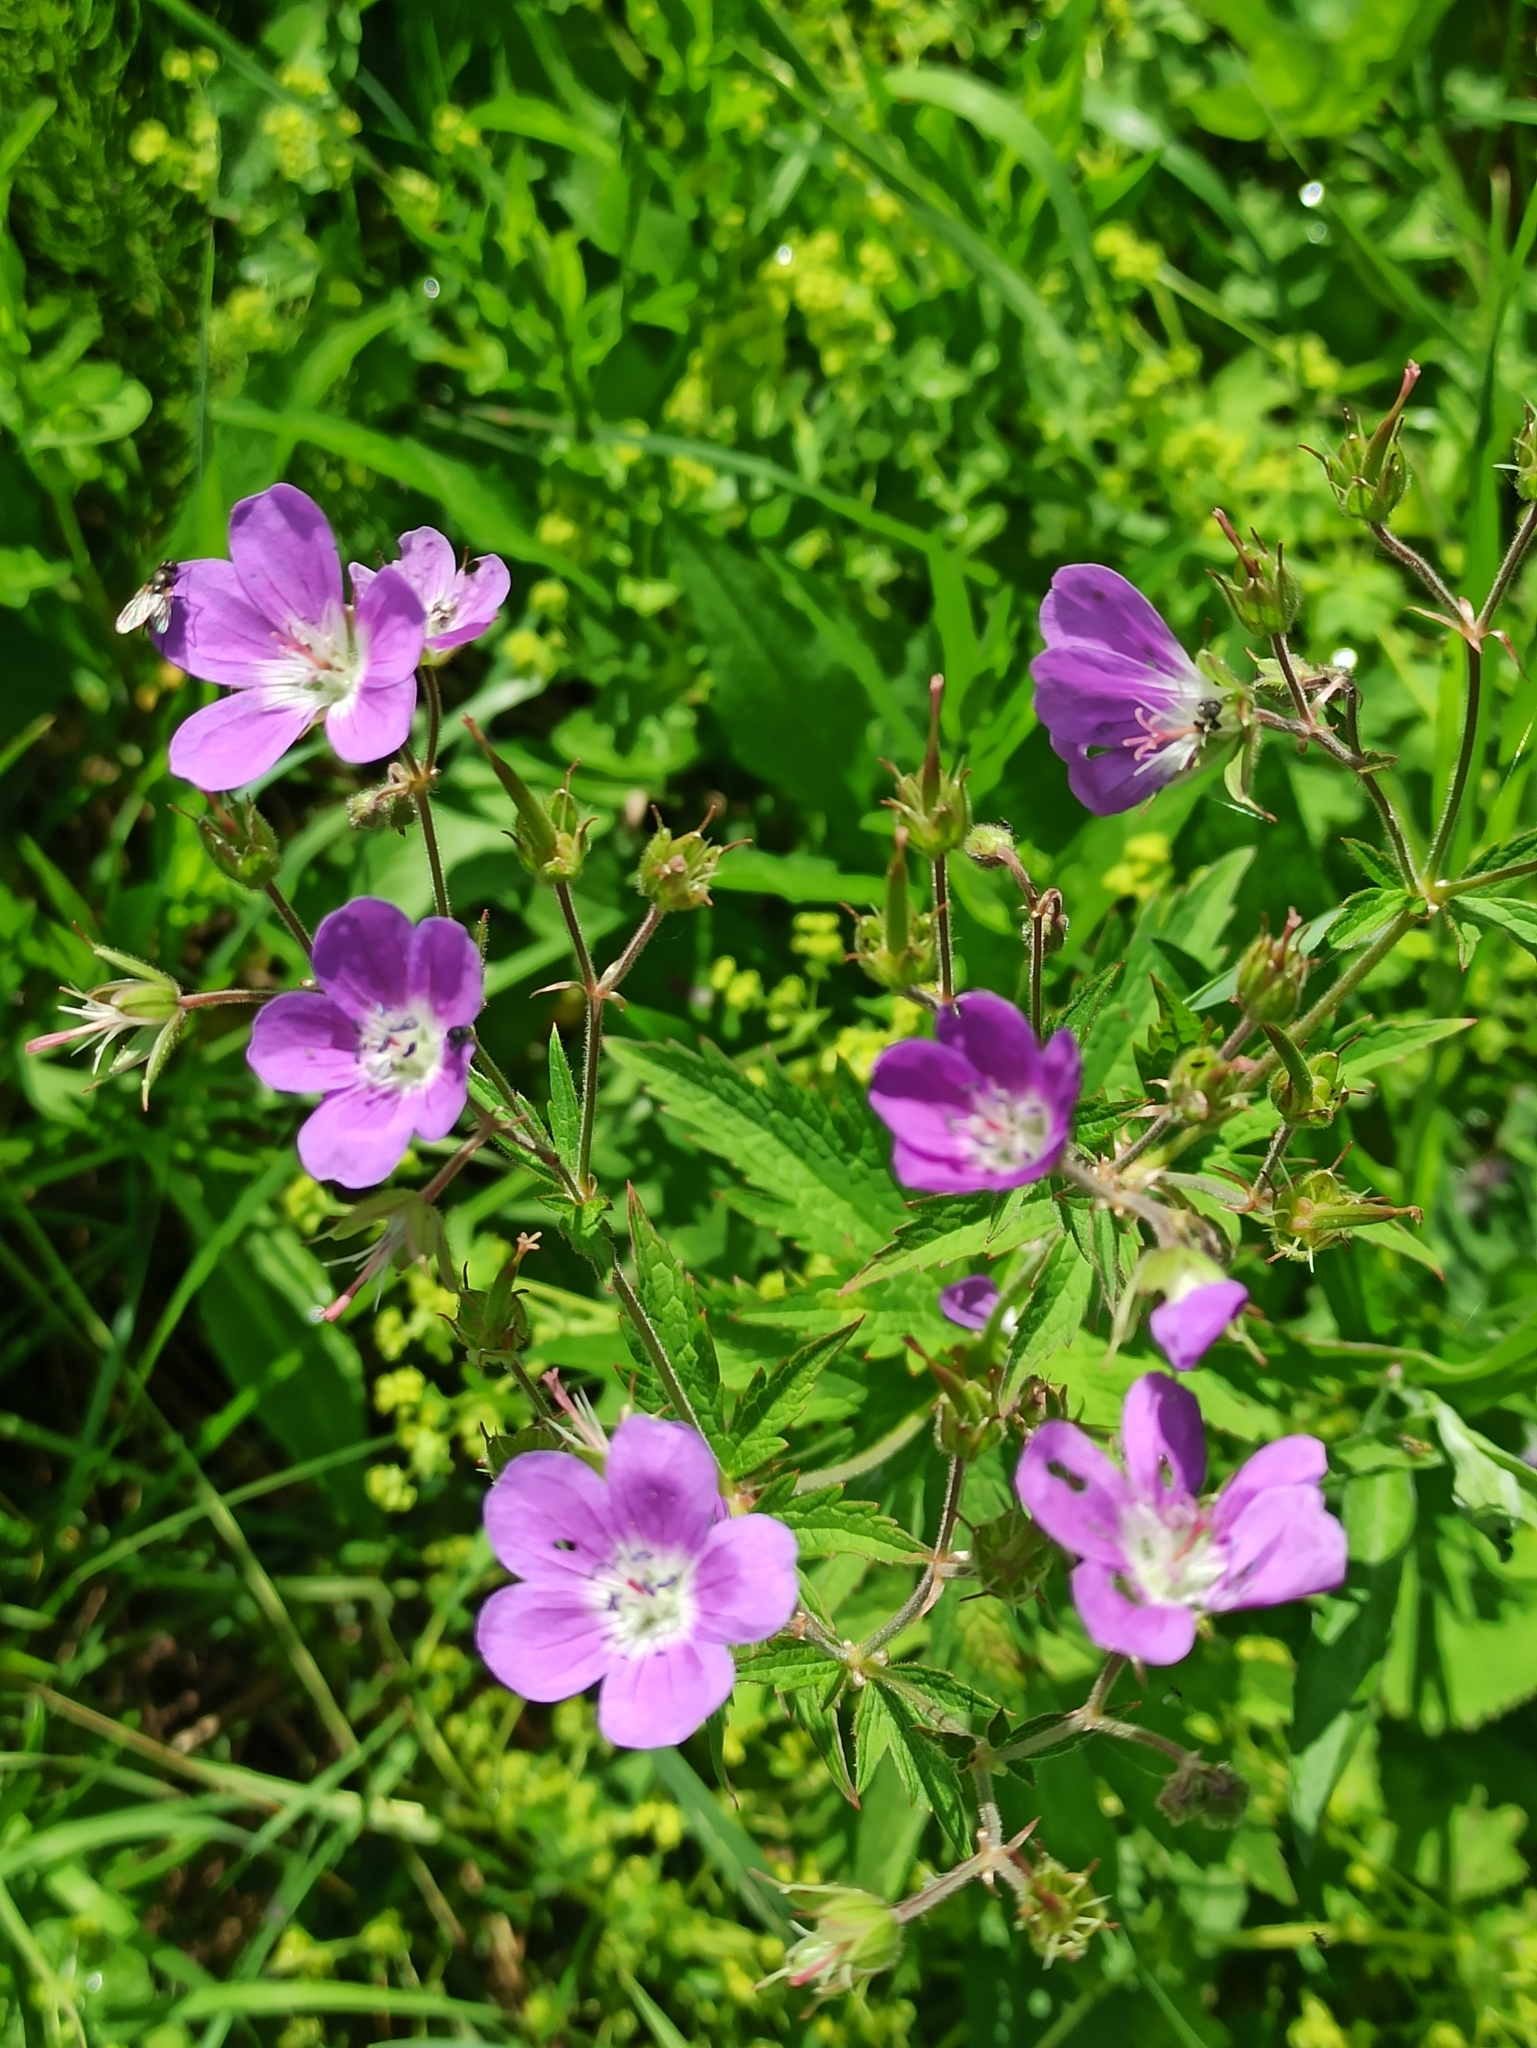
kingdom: Plantae
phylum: Tracheophyta
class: Magnoliopsida
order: Geraniales
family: Geraniaceae
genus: Geranium
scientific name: Geranium sylvaticum
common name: Wood crane's-bill
